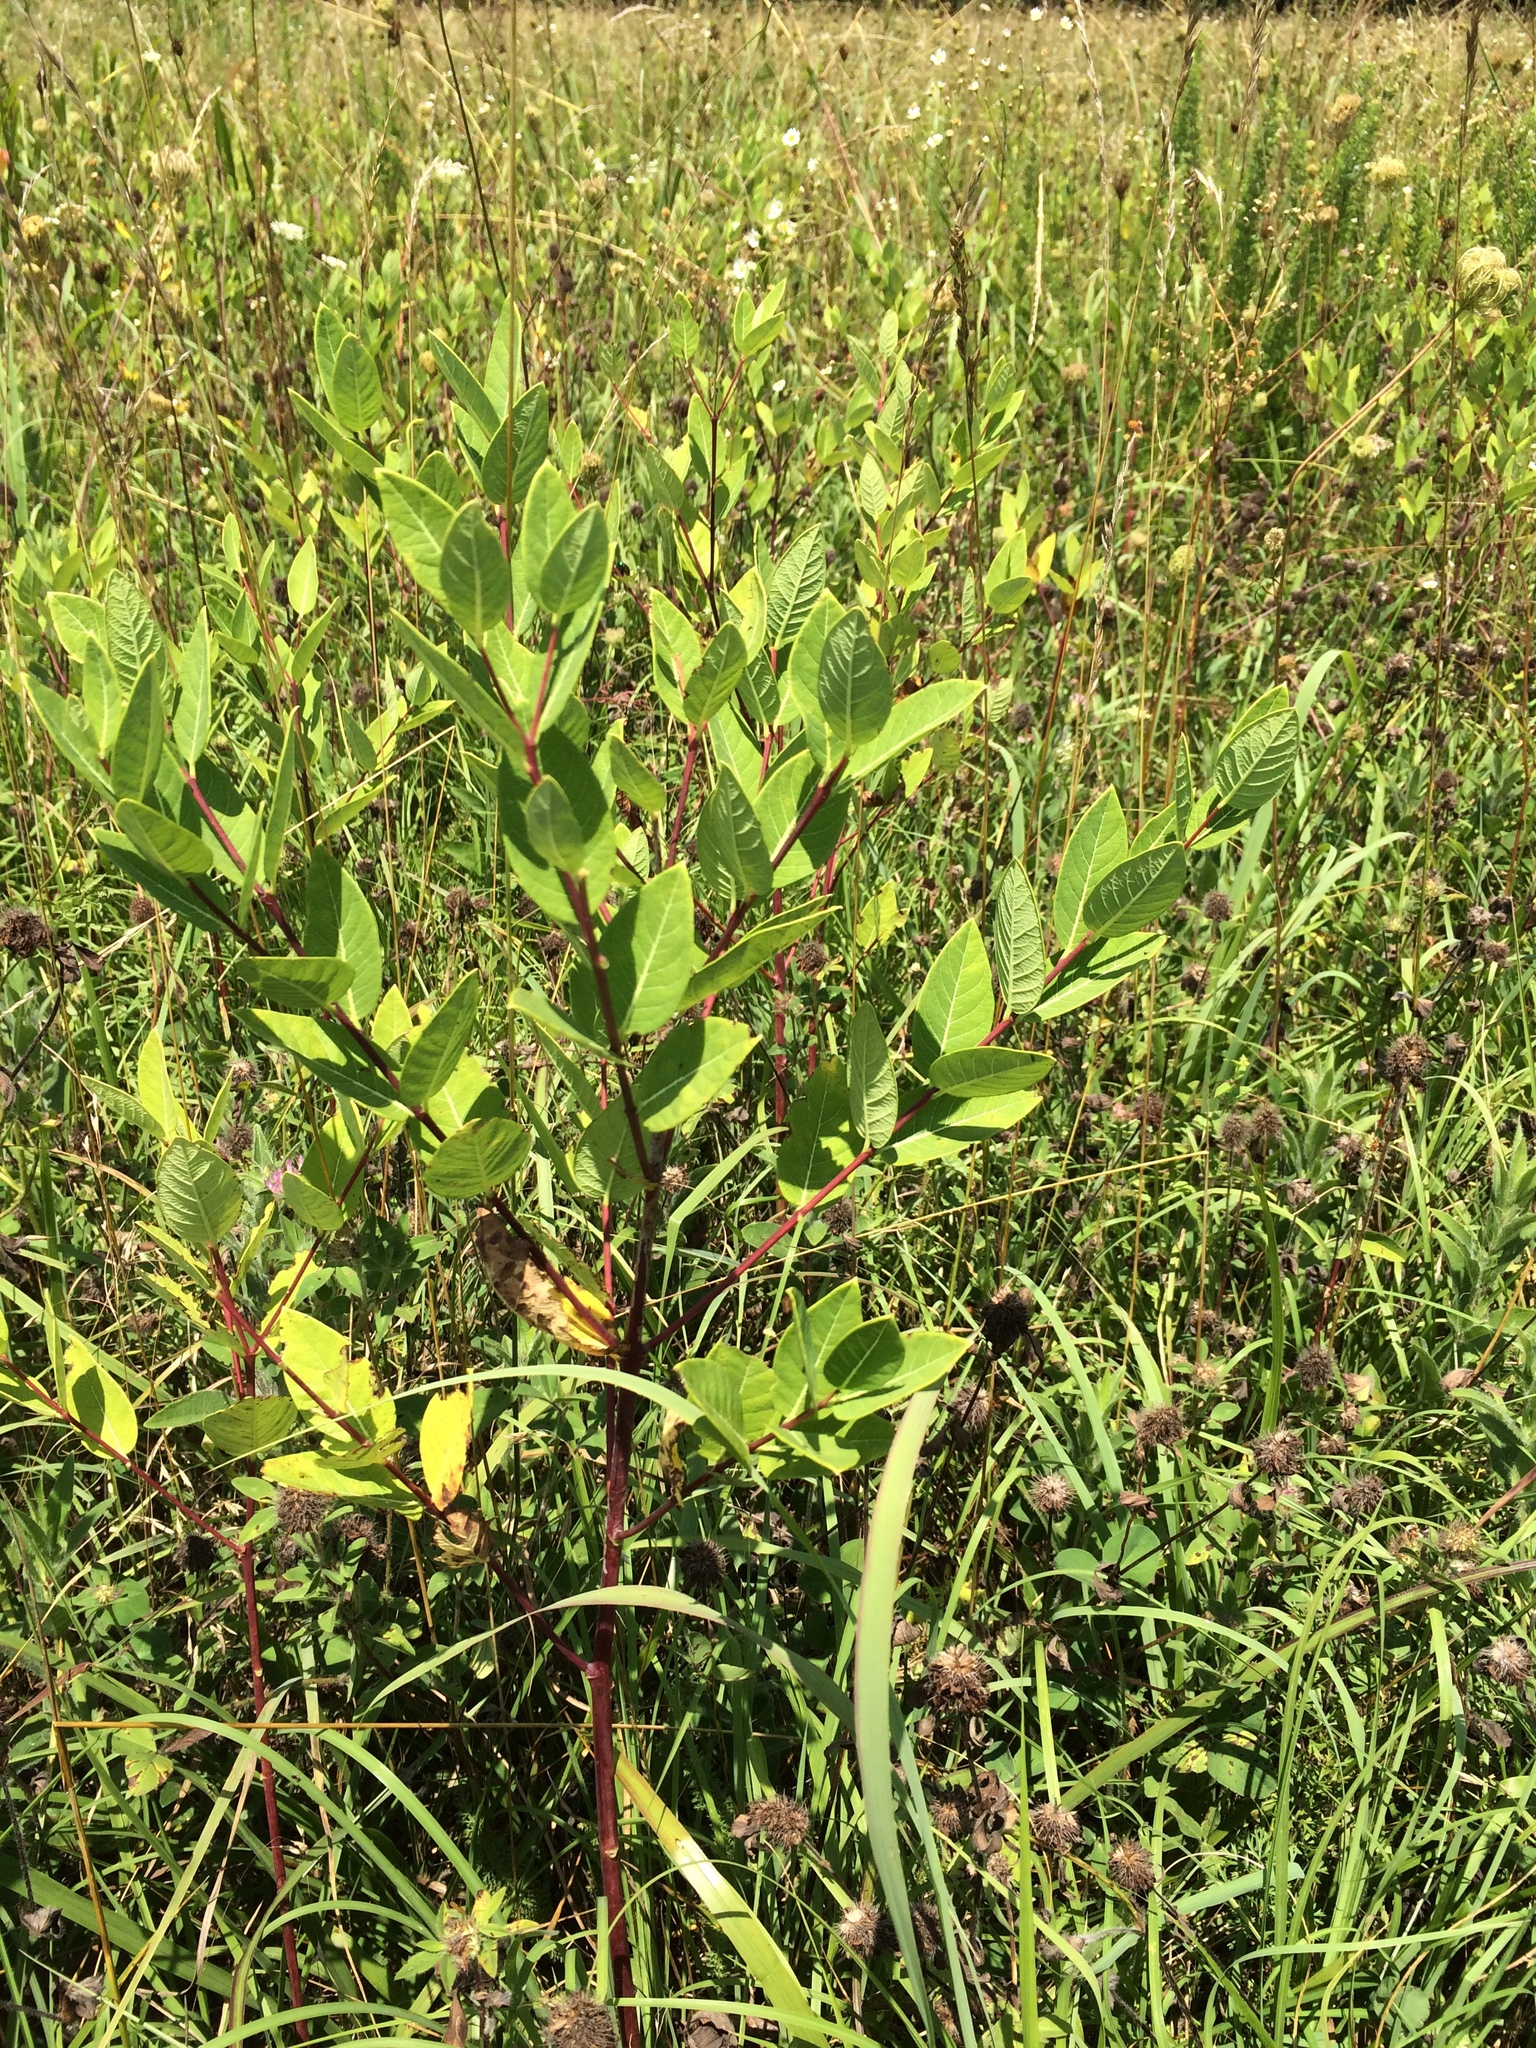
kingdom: Plantae
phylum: Tracheophyta
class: Magnoliopsida
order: Gentianales
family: Apocynaceae
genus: Apocynum
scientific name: Apocynum cannabinum
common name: Hemp dogbane
